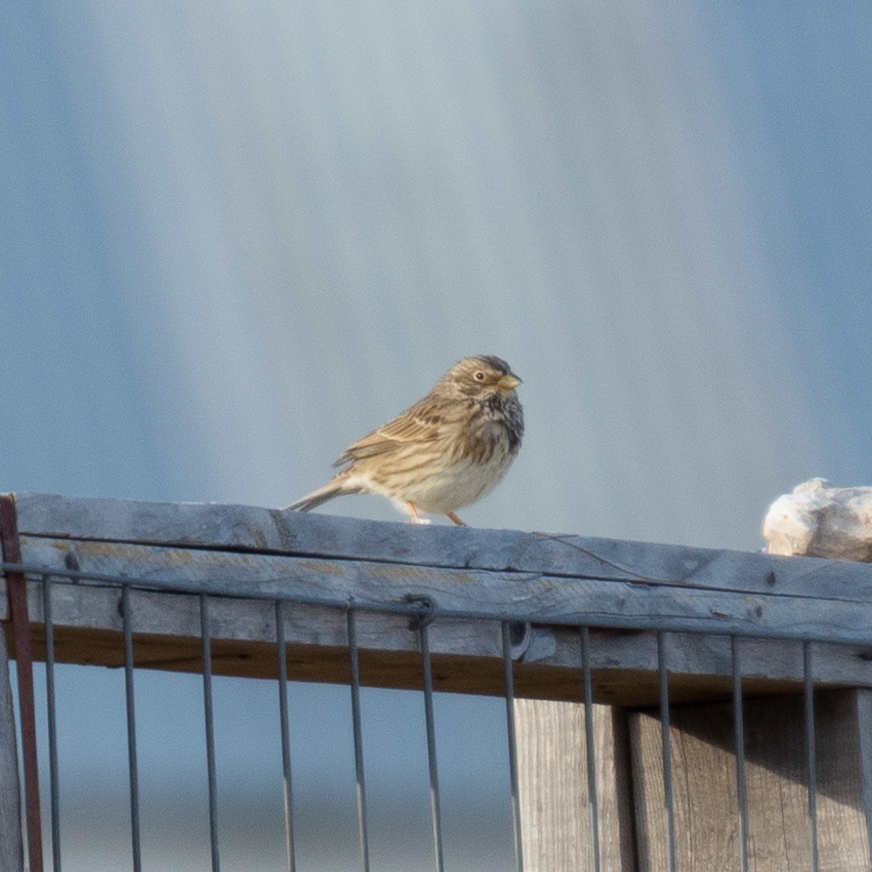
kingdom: Animalia
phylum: Chordata
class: Aves
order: Passeriformes
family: Emberizidae
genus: Emberiza
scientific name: Emberiza calandra
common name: Corn bunting
